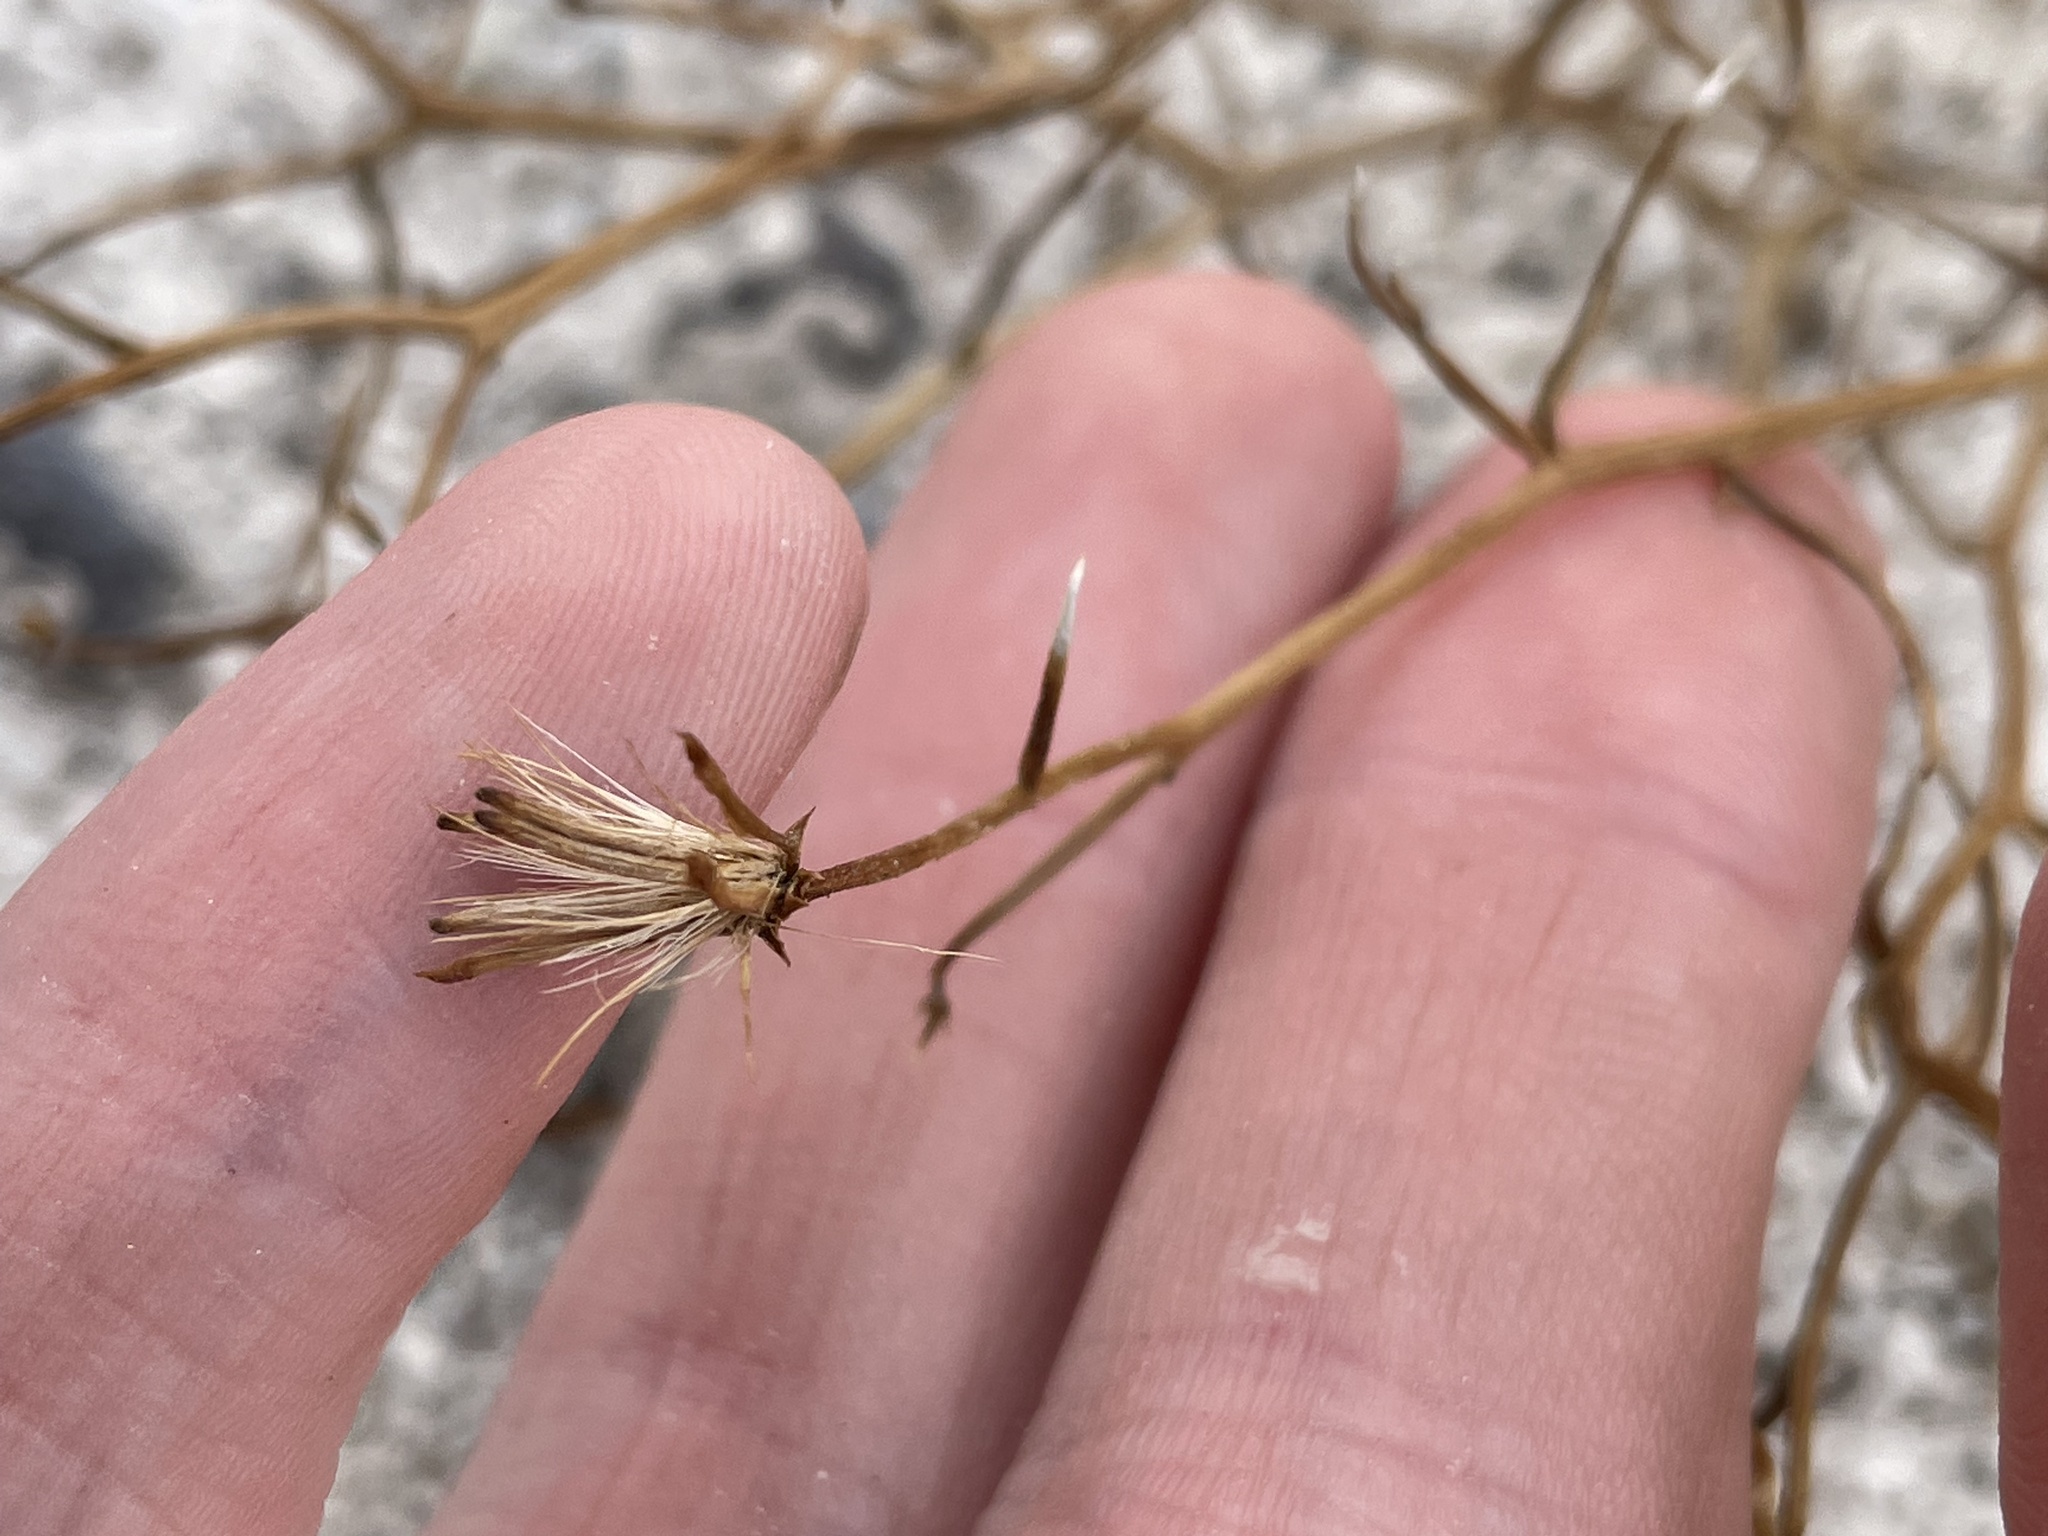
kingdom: Plantae
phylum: Tracheophyta
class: Magnoliopsida
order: Asterales
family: Asteraceae
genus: Chaetadelpha
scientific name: Chaetadelpha wheeleri
